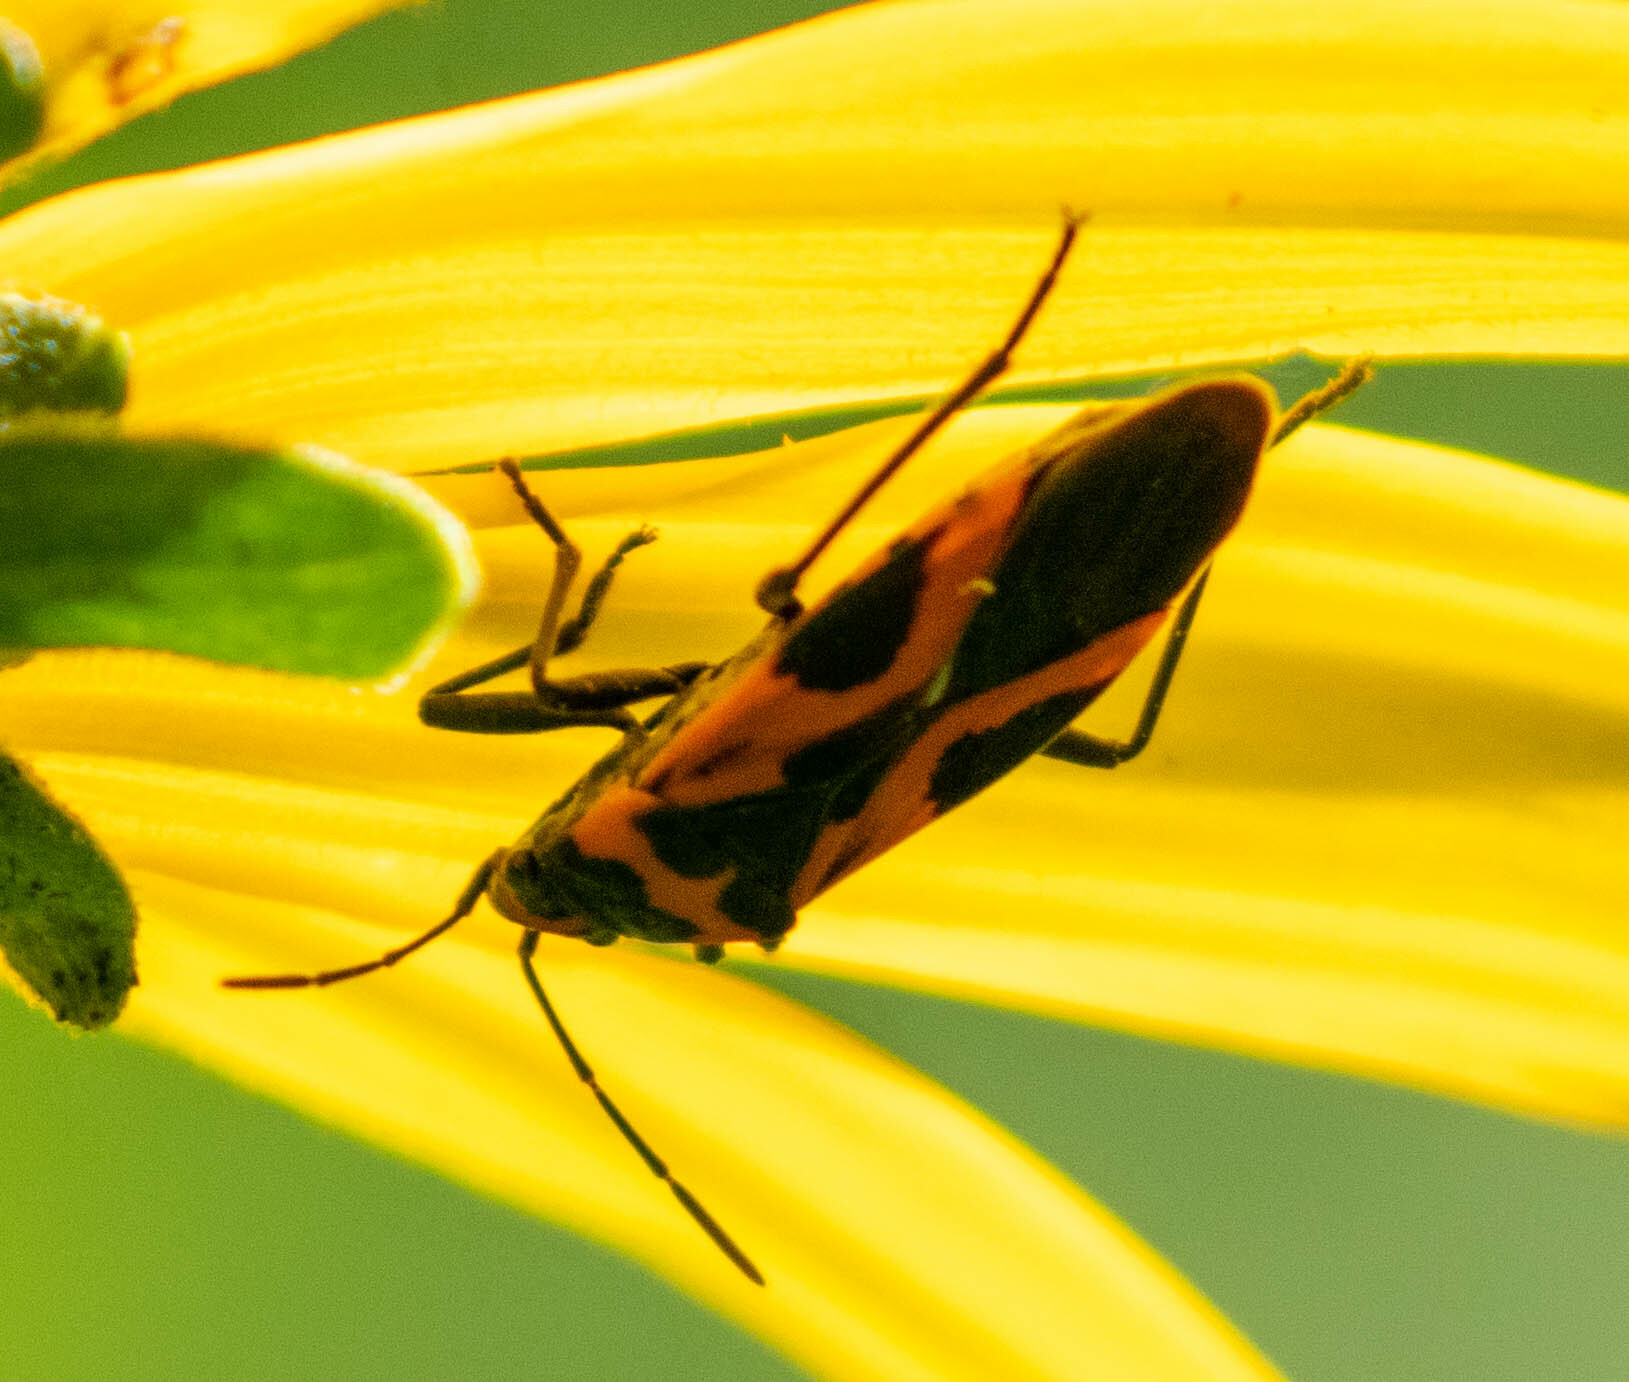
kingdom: Animalia
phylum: Arthropoda
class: Insecta
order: Hemiptera
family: Lygaeidae
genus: Lygaeus
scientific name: Lygaeus turcicus
